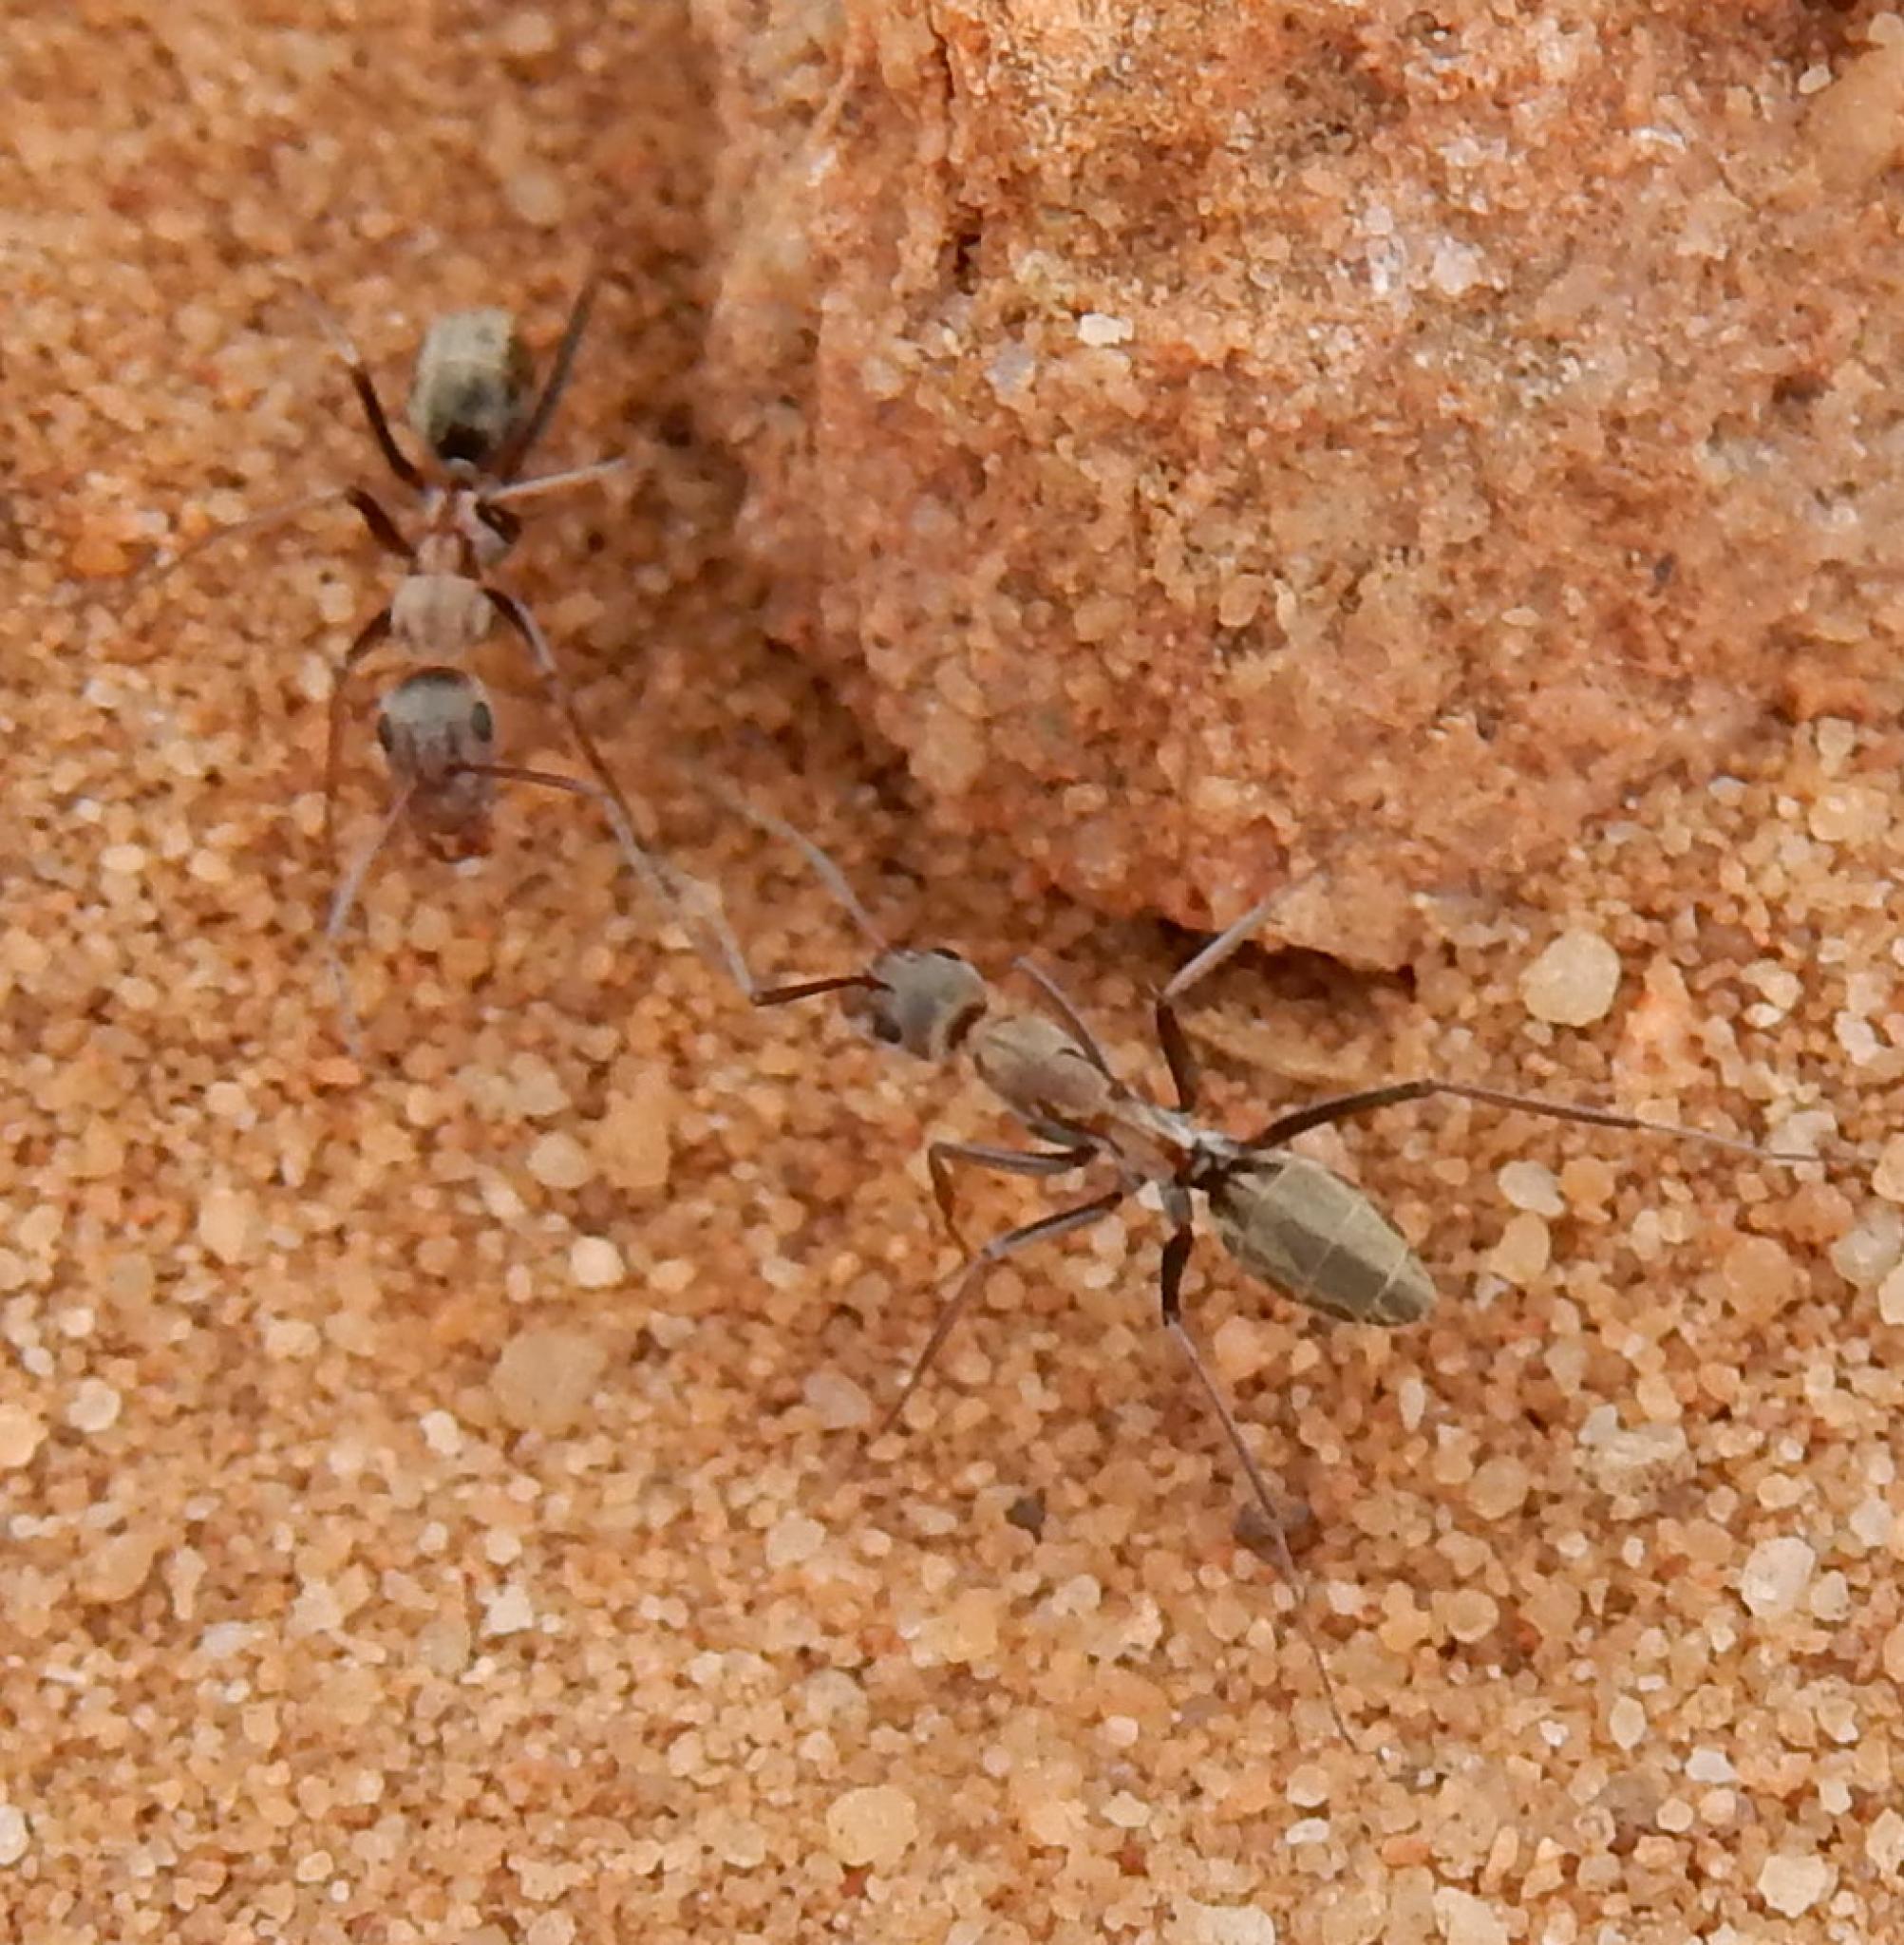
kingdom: Animalia
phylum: Arthropoda
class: Insecta
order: Hymenoptera
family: Formicidae
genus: Camponotus
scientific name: Camponotus vestitus
